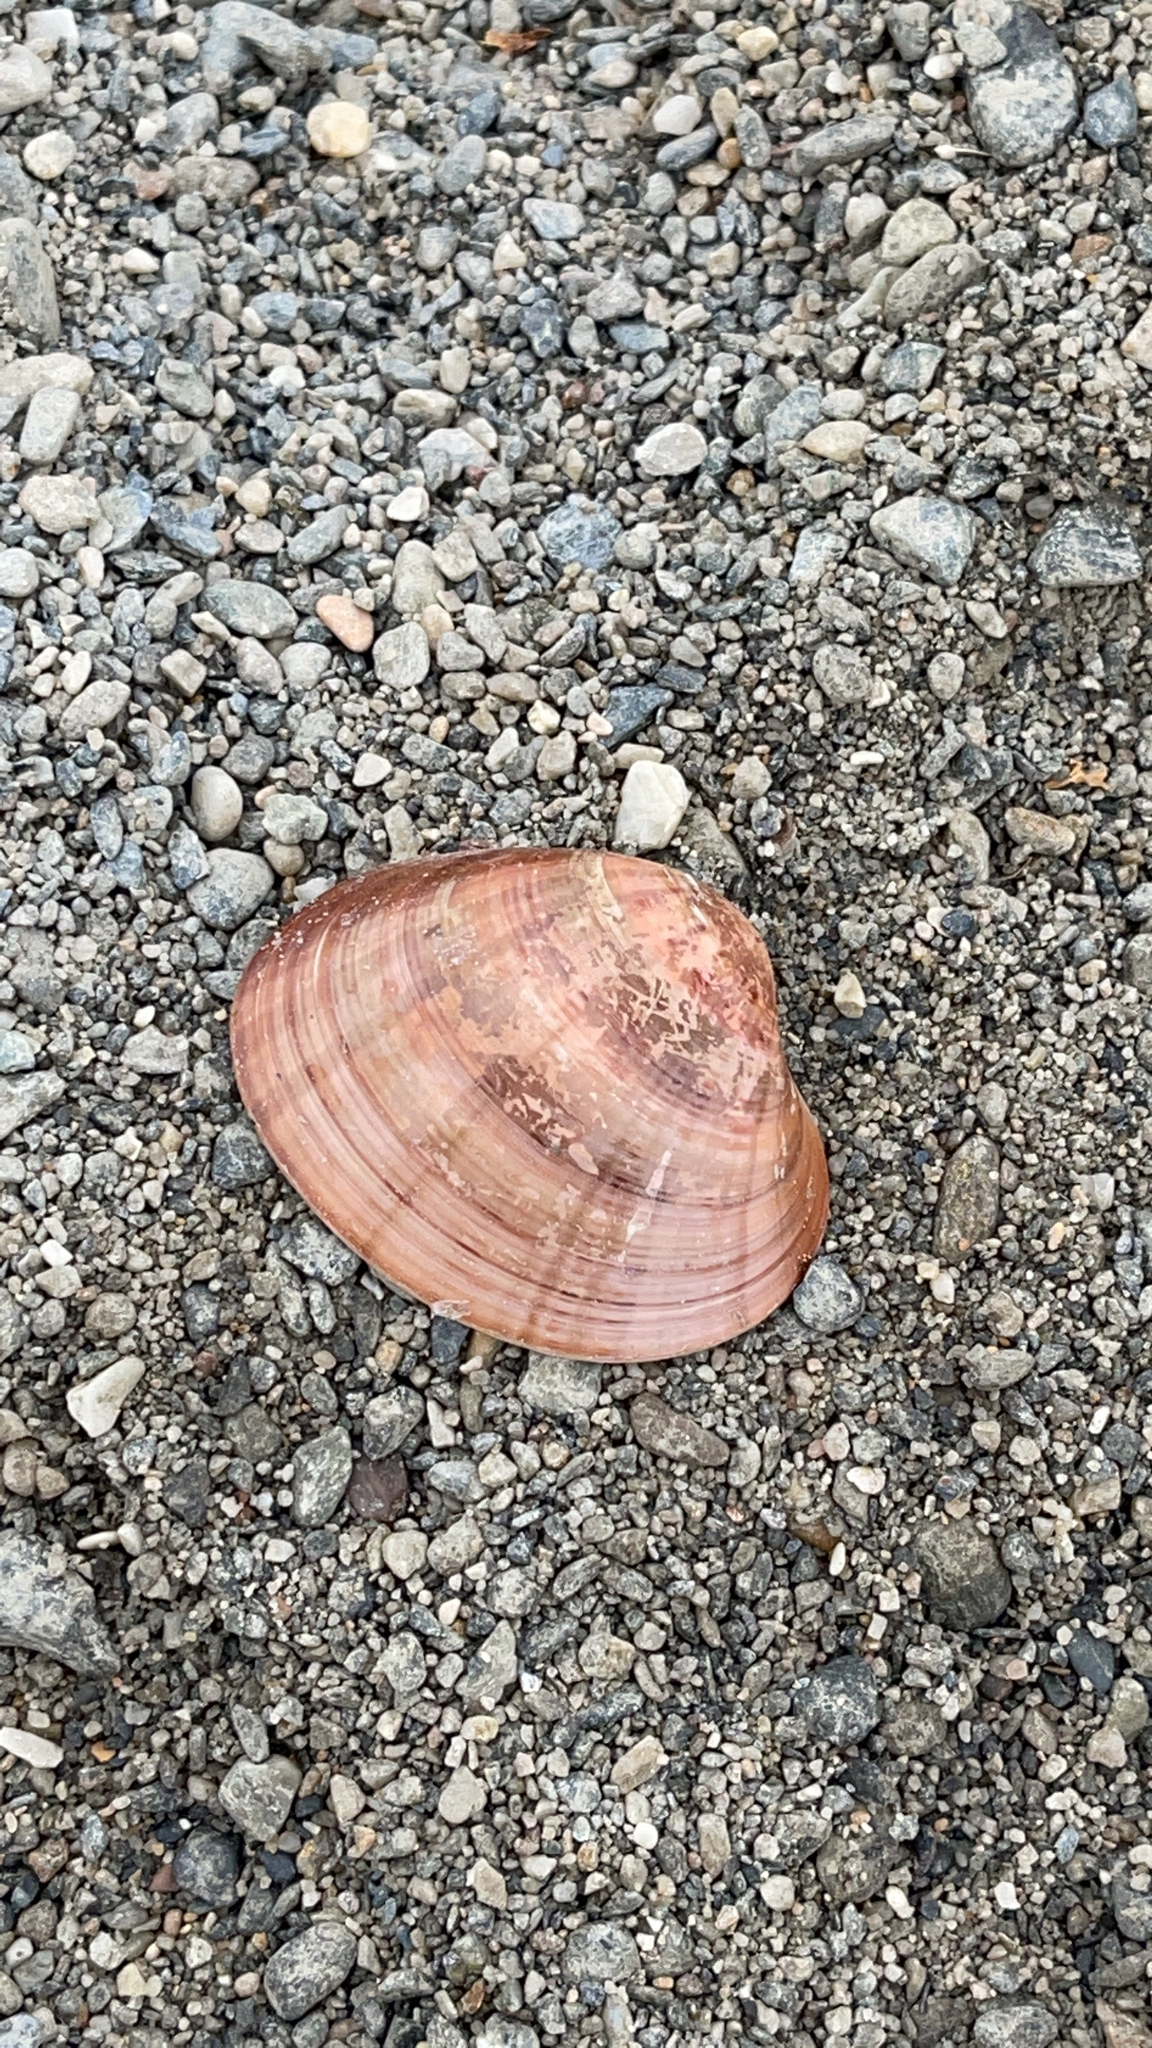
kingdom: Animalia
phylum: Mollusca
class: Bivalvia
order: Venerida
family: Veneridae
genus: Callista
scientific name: Callista chione
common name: Brown venus
